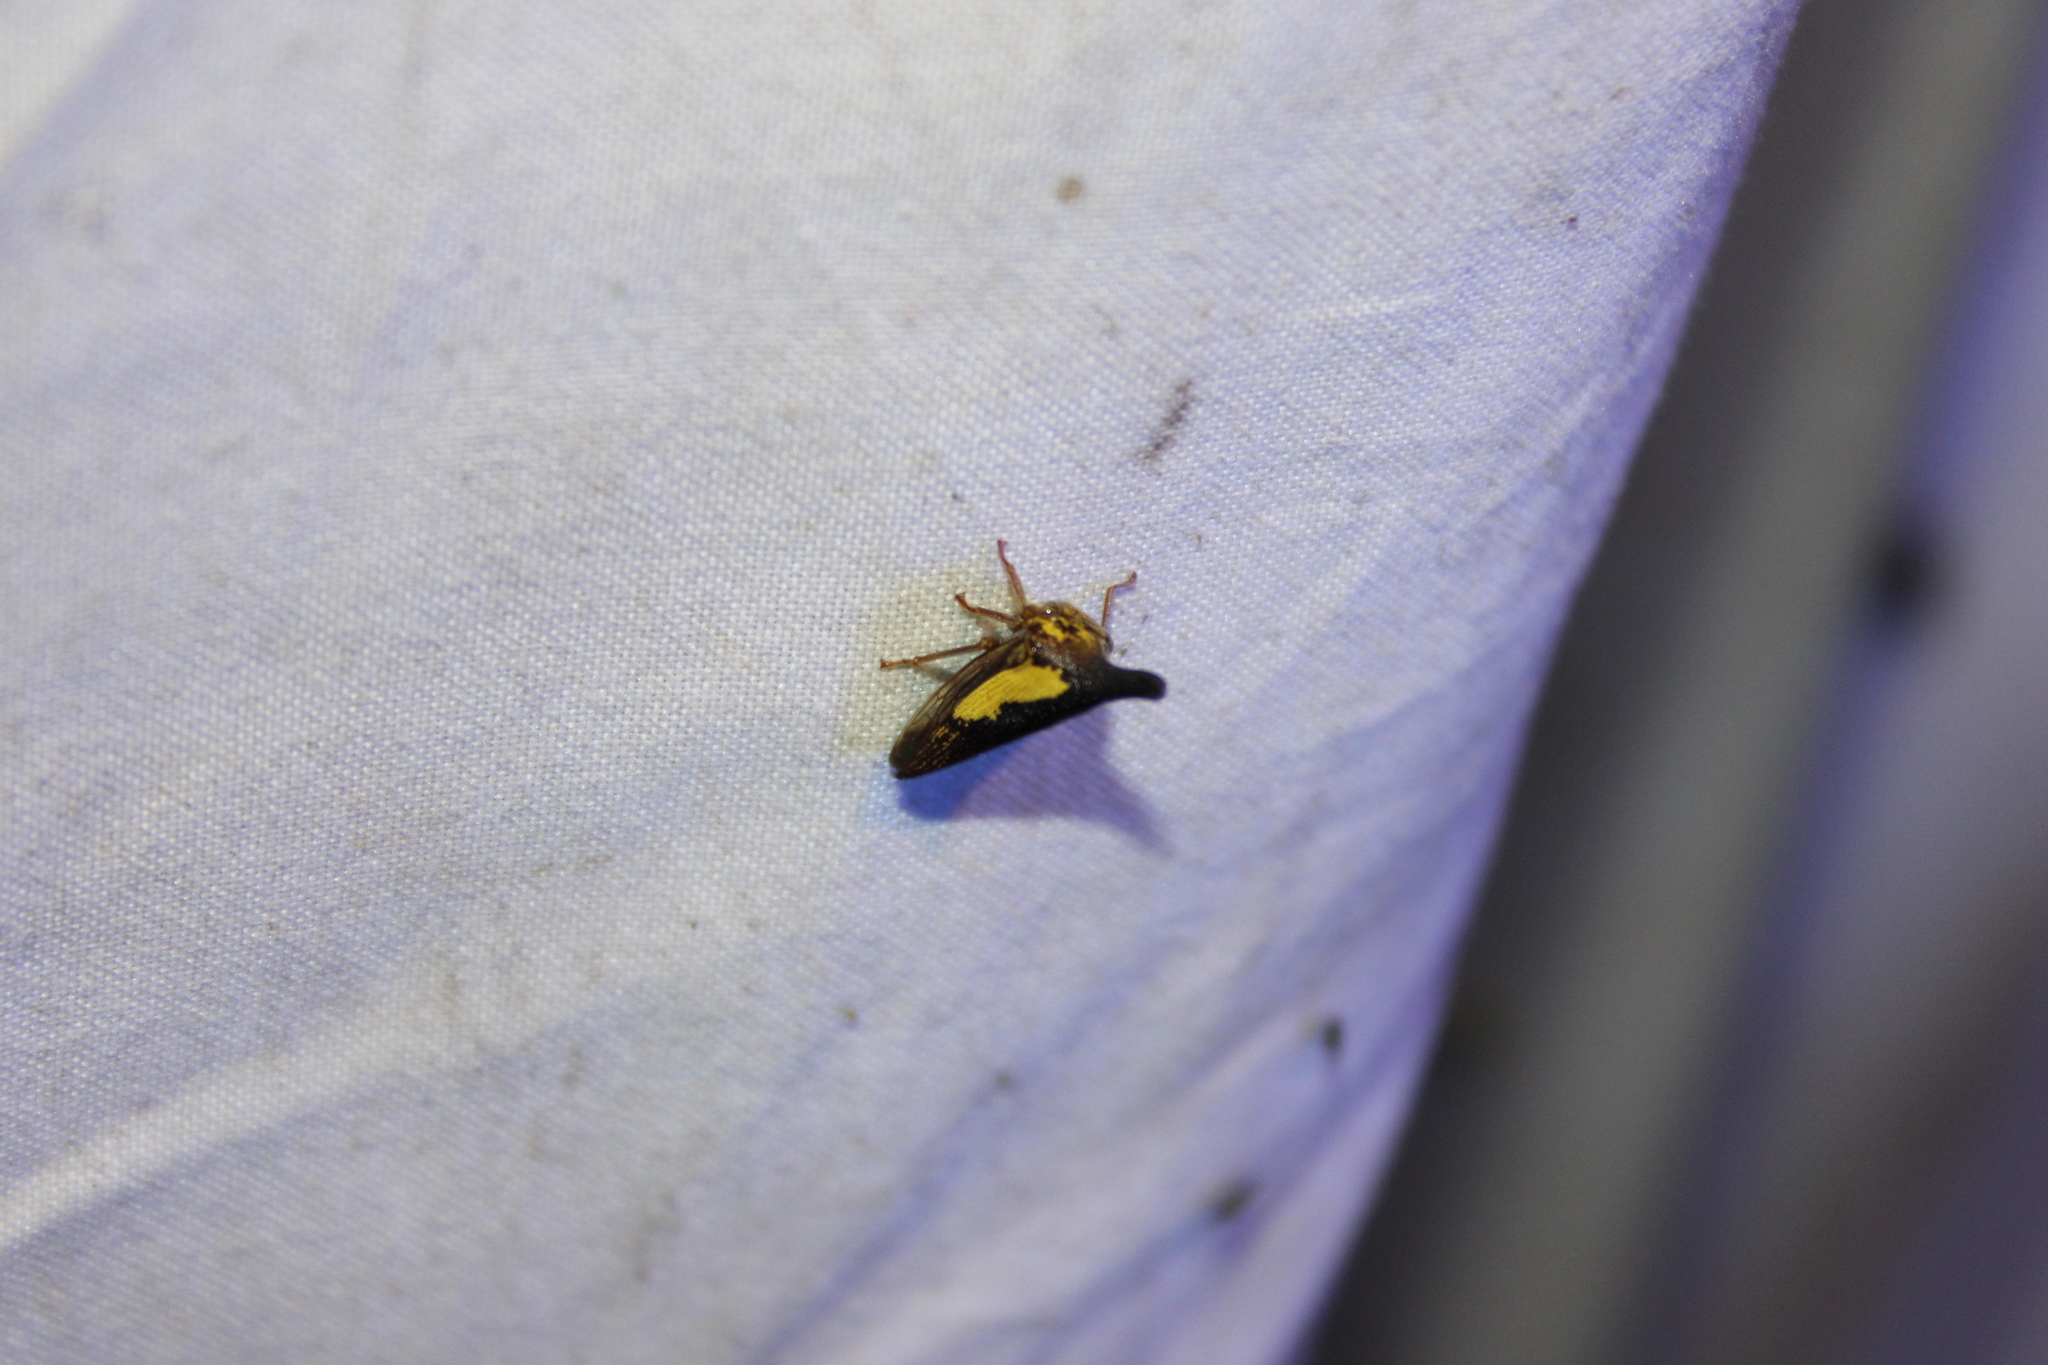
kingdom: Animalia
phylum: Arthropoda
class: Insecta
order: Hemiptera
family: Membracidae
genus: Thelia
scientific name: Thelia bimaculata
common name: Locust treehopper
